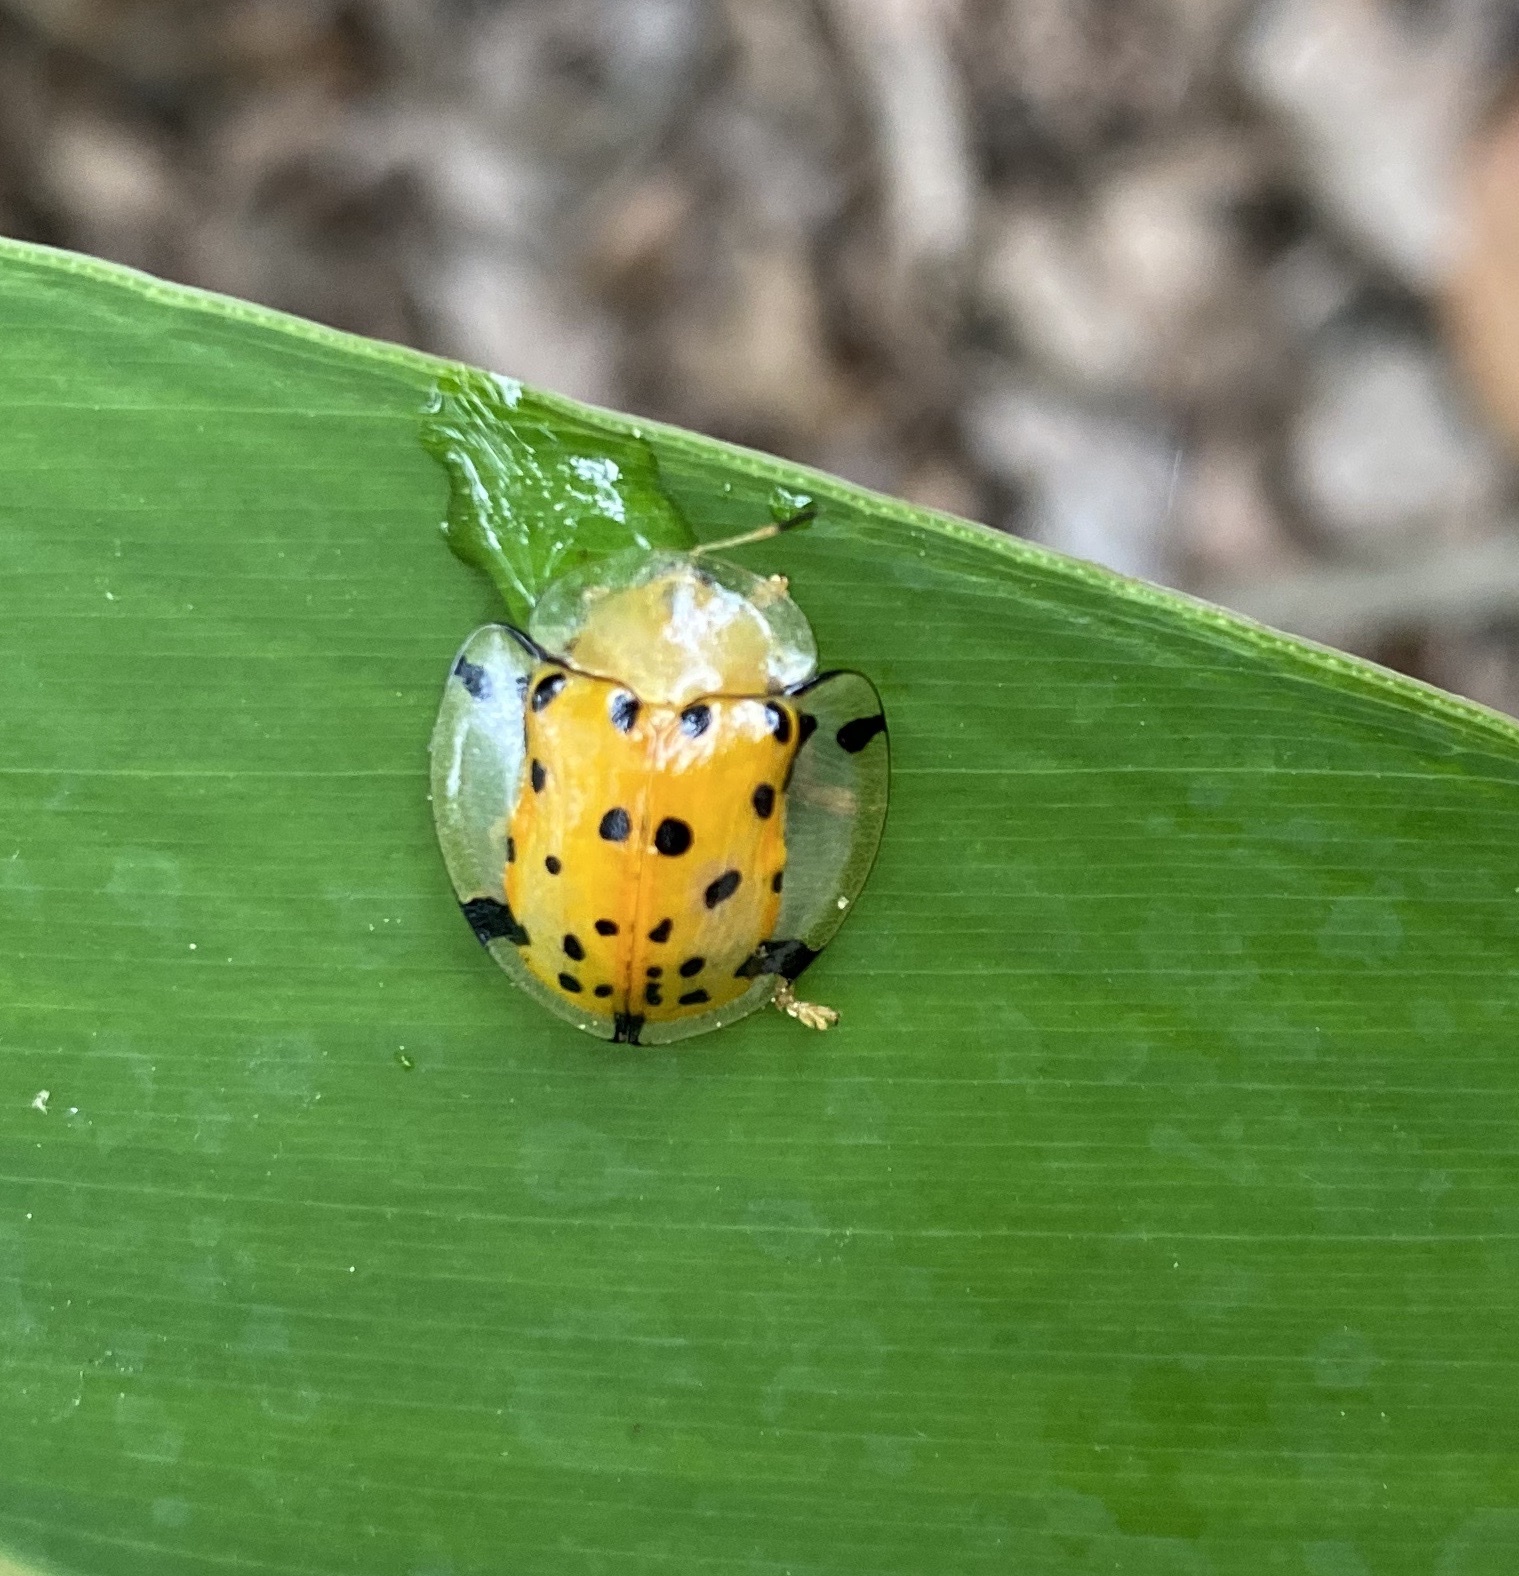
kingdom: Animalia
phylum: Arthropoda
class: Insecta
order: Coleoptera
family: Chrysomelidae
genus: Aspidimorpha
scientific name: Aspidimorpha miliaris
